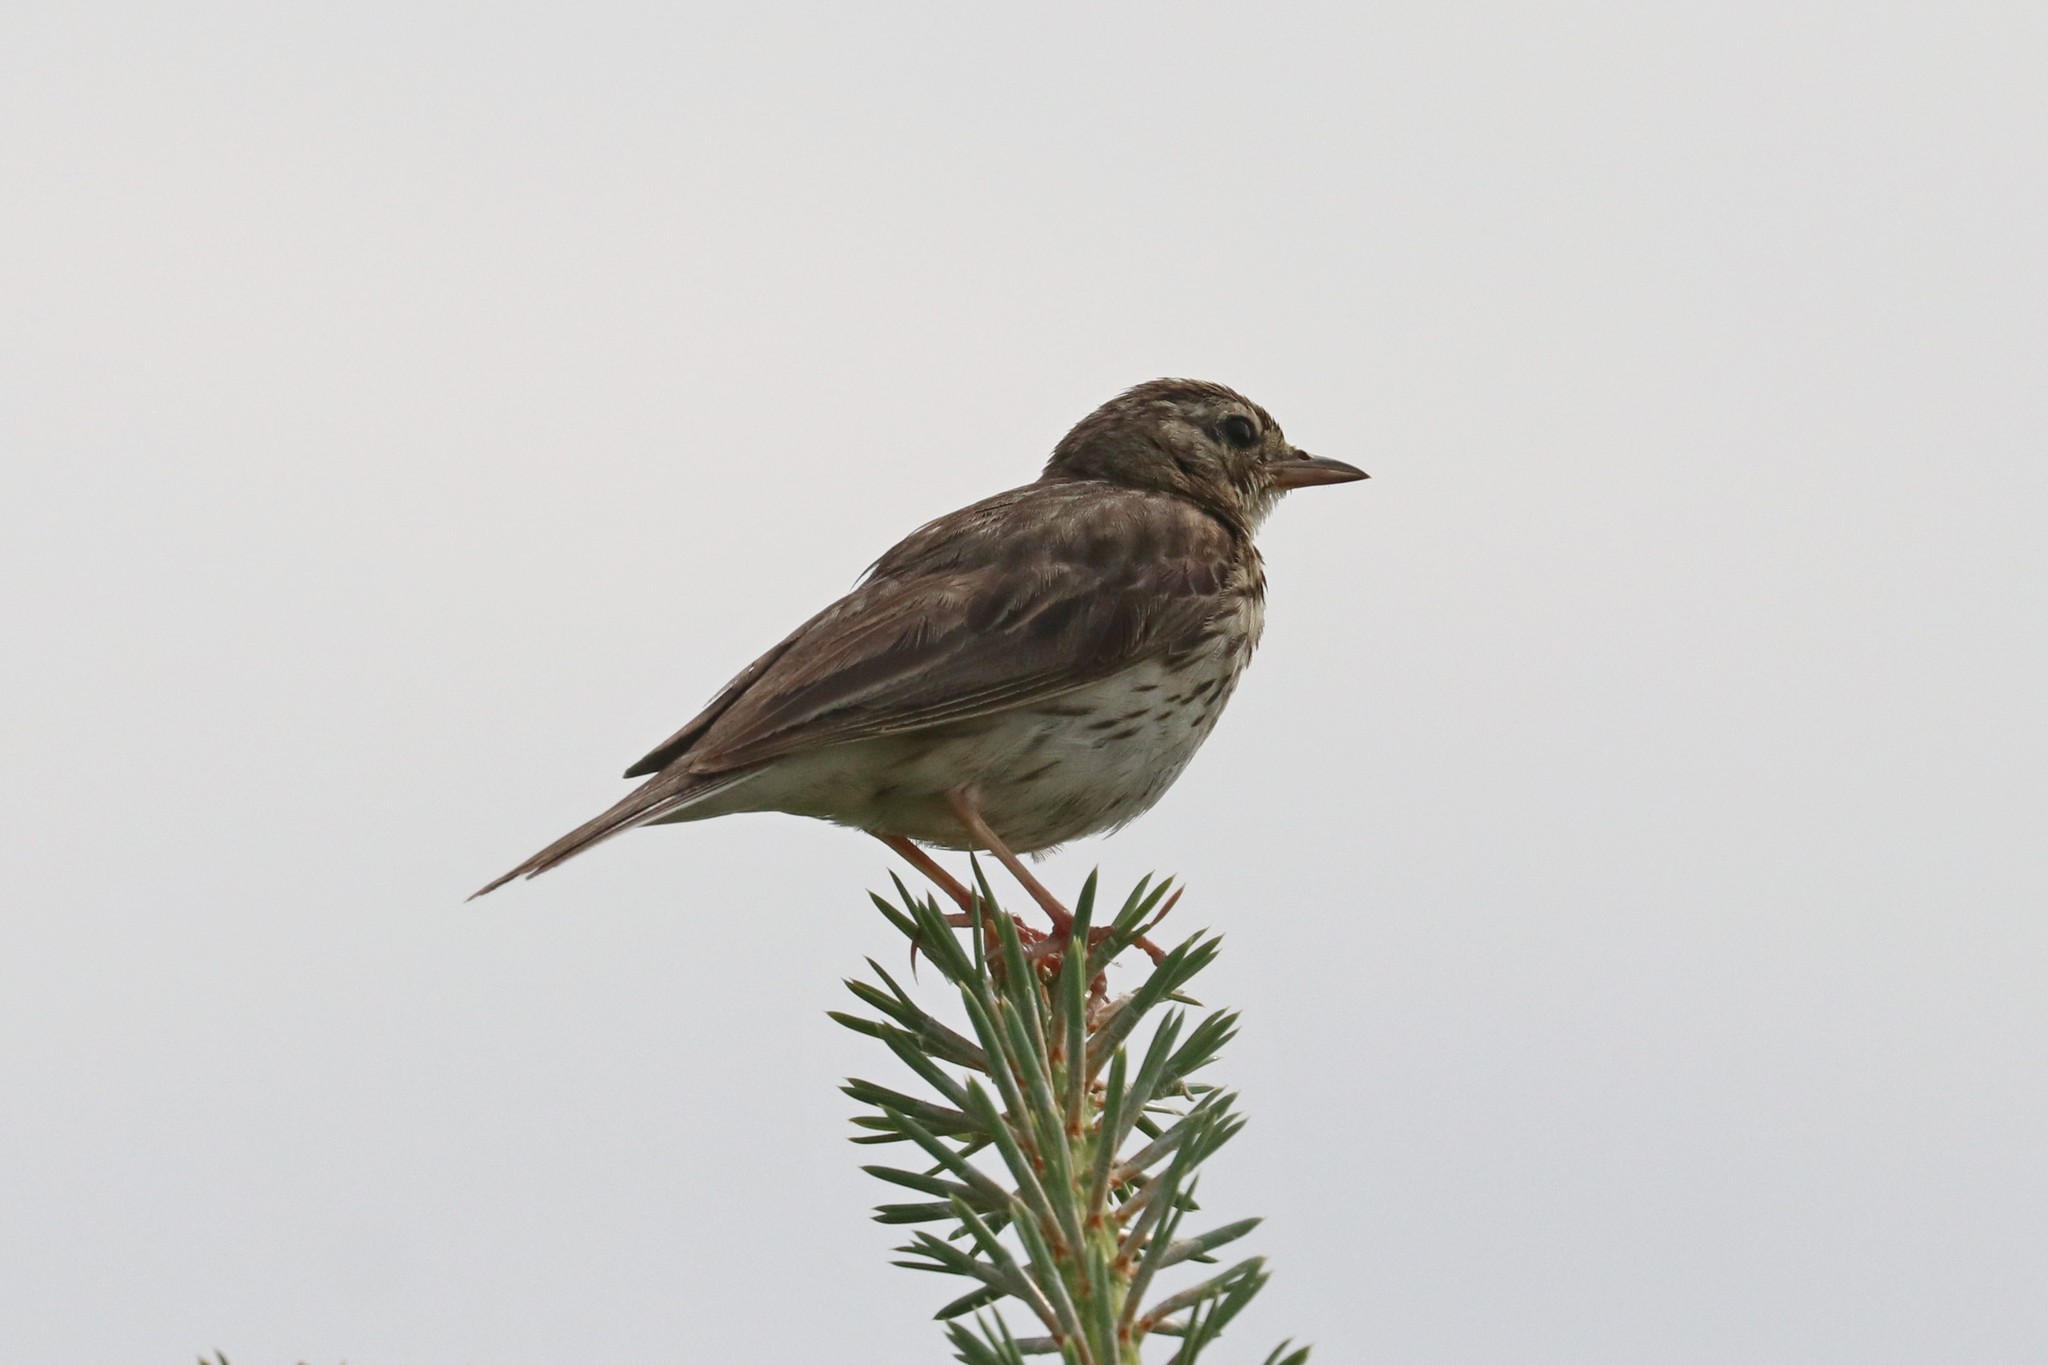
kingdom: Animalia
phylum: Chordata
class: Aves
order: Passeriformes
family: Motacillidae
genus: Anthus
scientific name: Anthus trivialis
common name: Tree pipit
